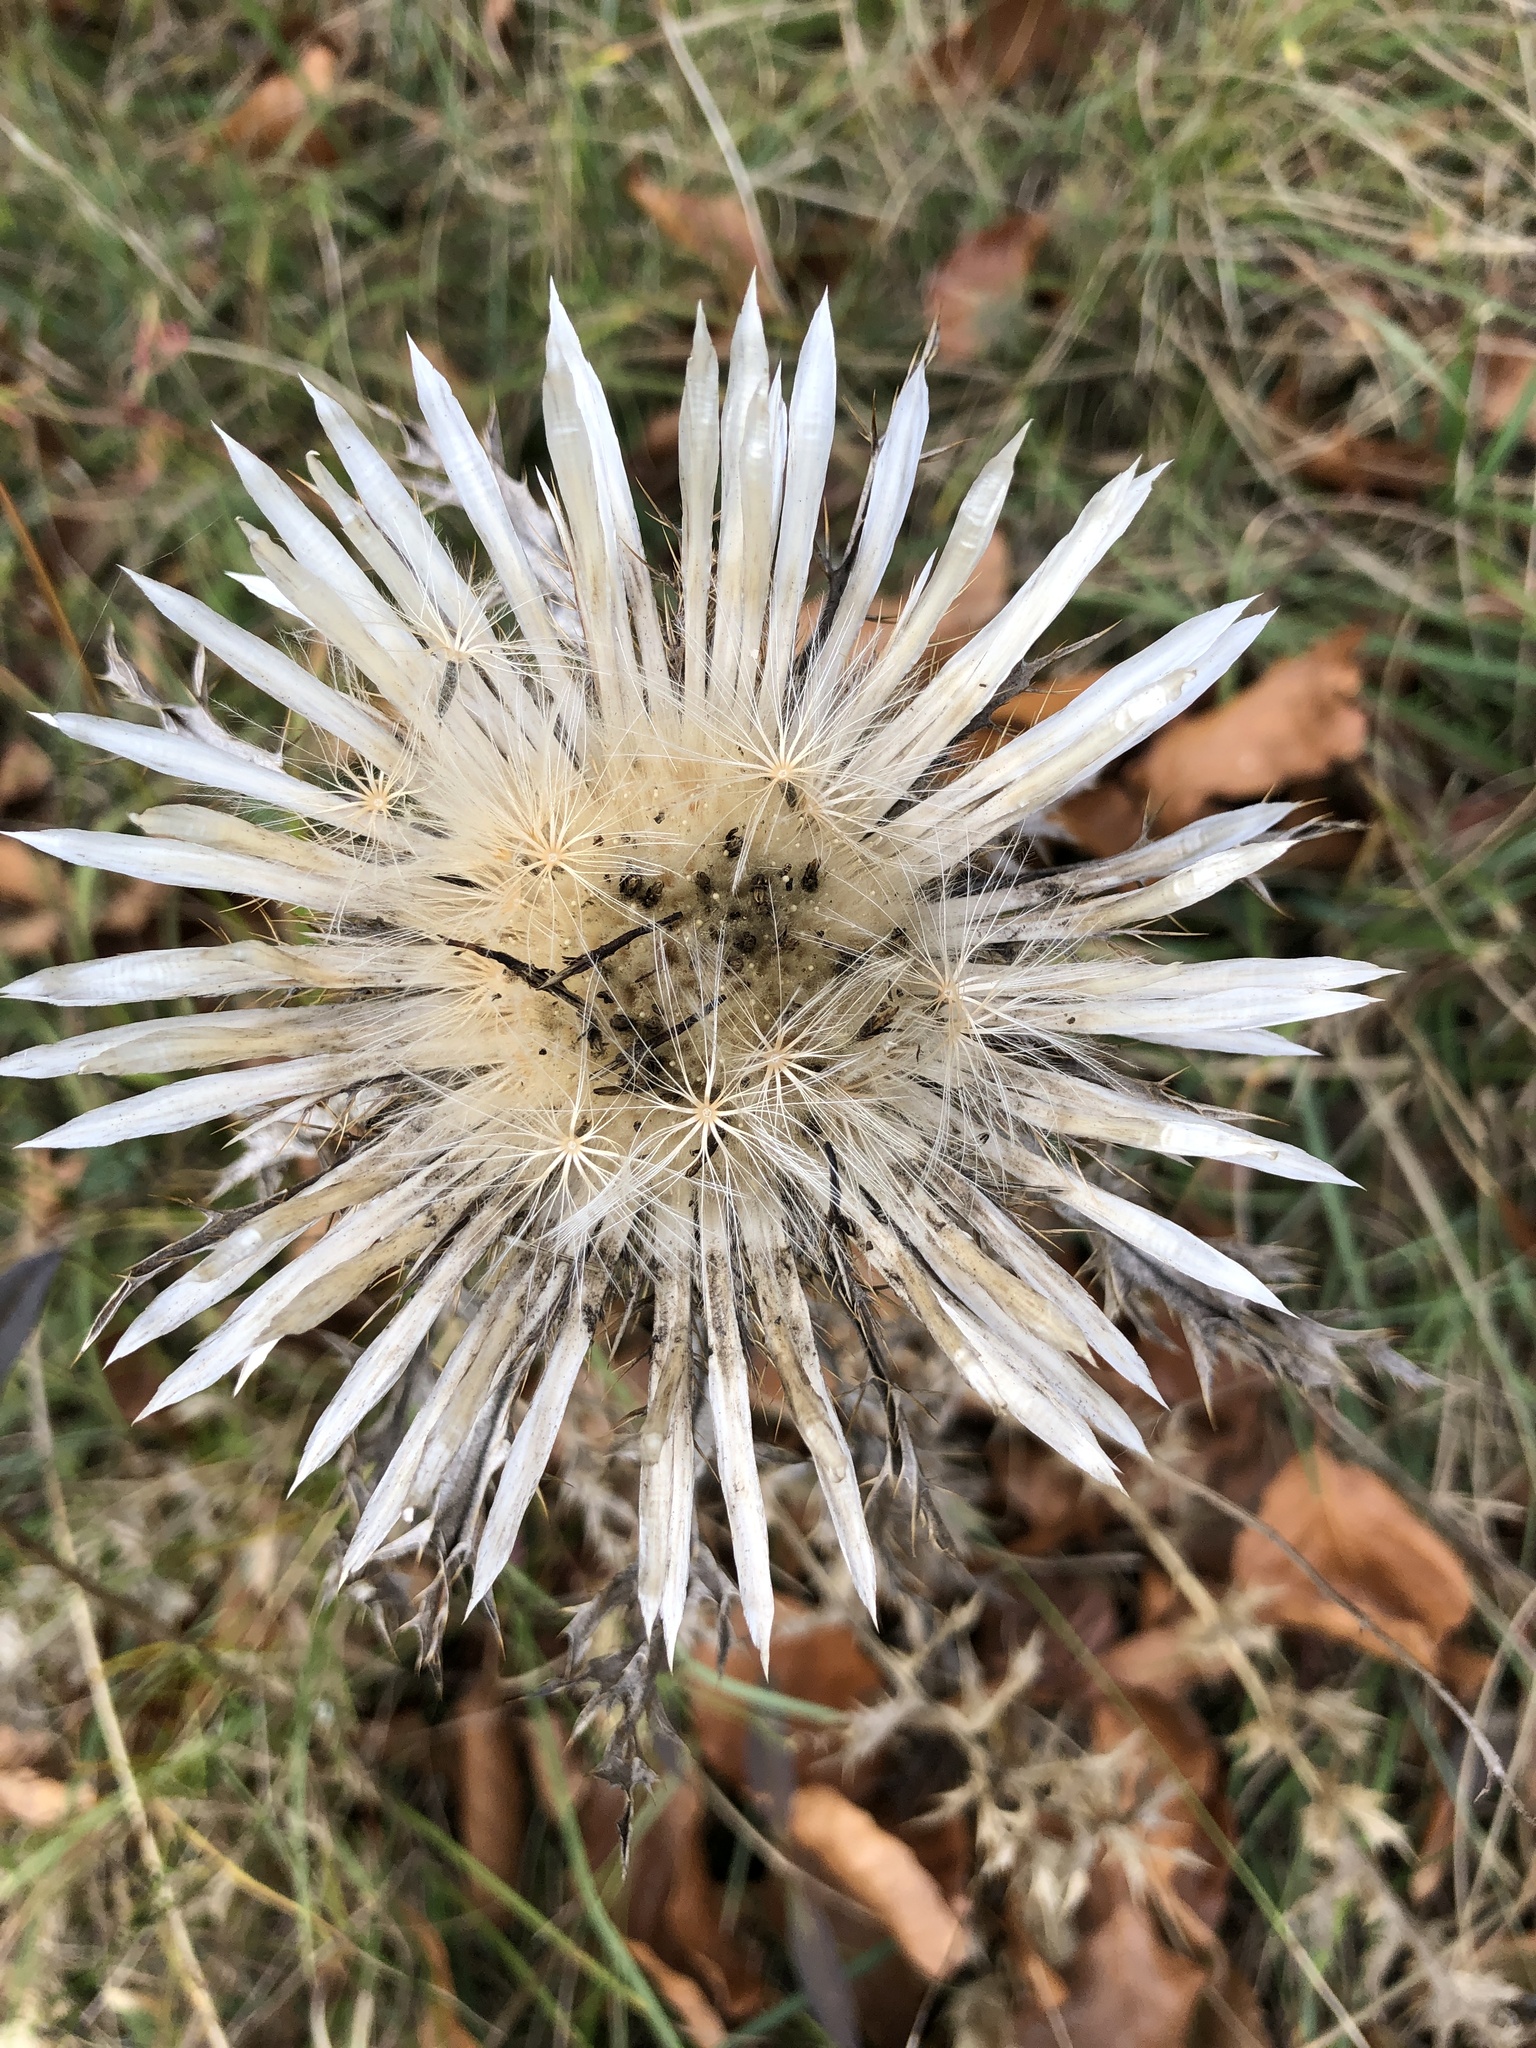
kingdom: Plantae
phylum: Tracheophyta
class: Magnoliopsida
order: Asterales
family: Asteraceae
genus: Carlina
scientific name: Carlina acaulis
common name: Stemless carline thistle
